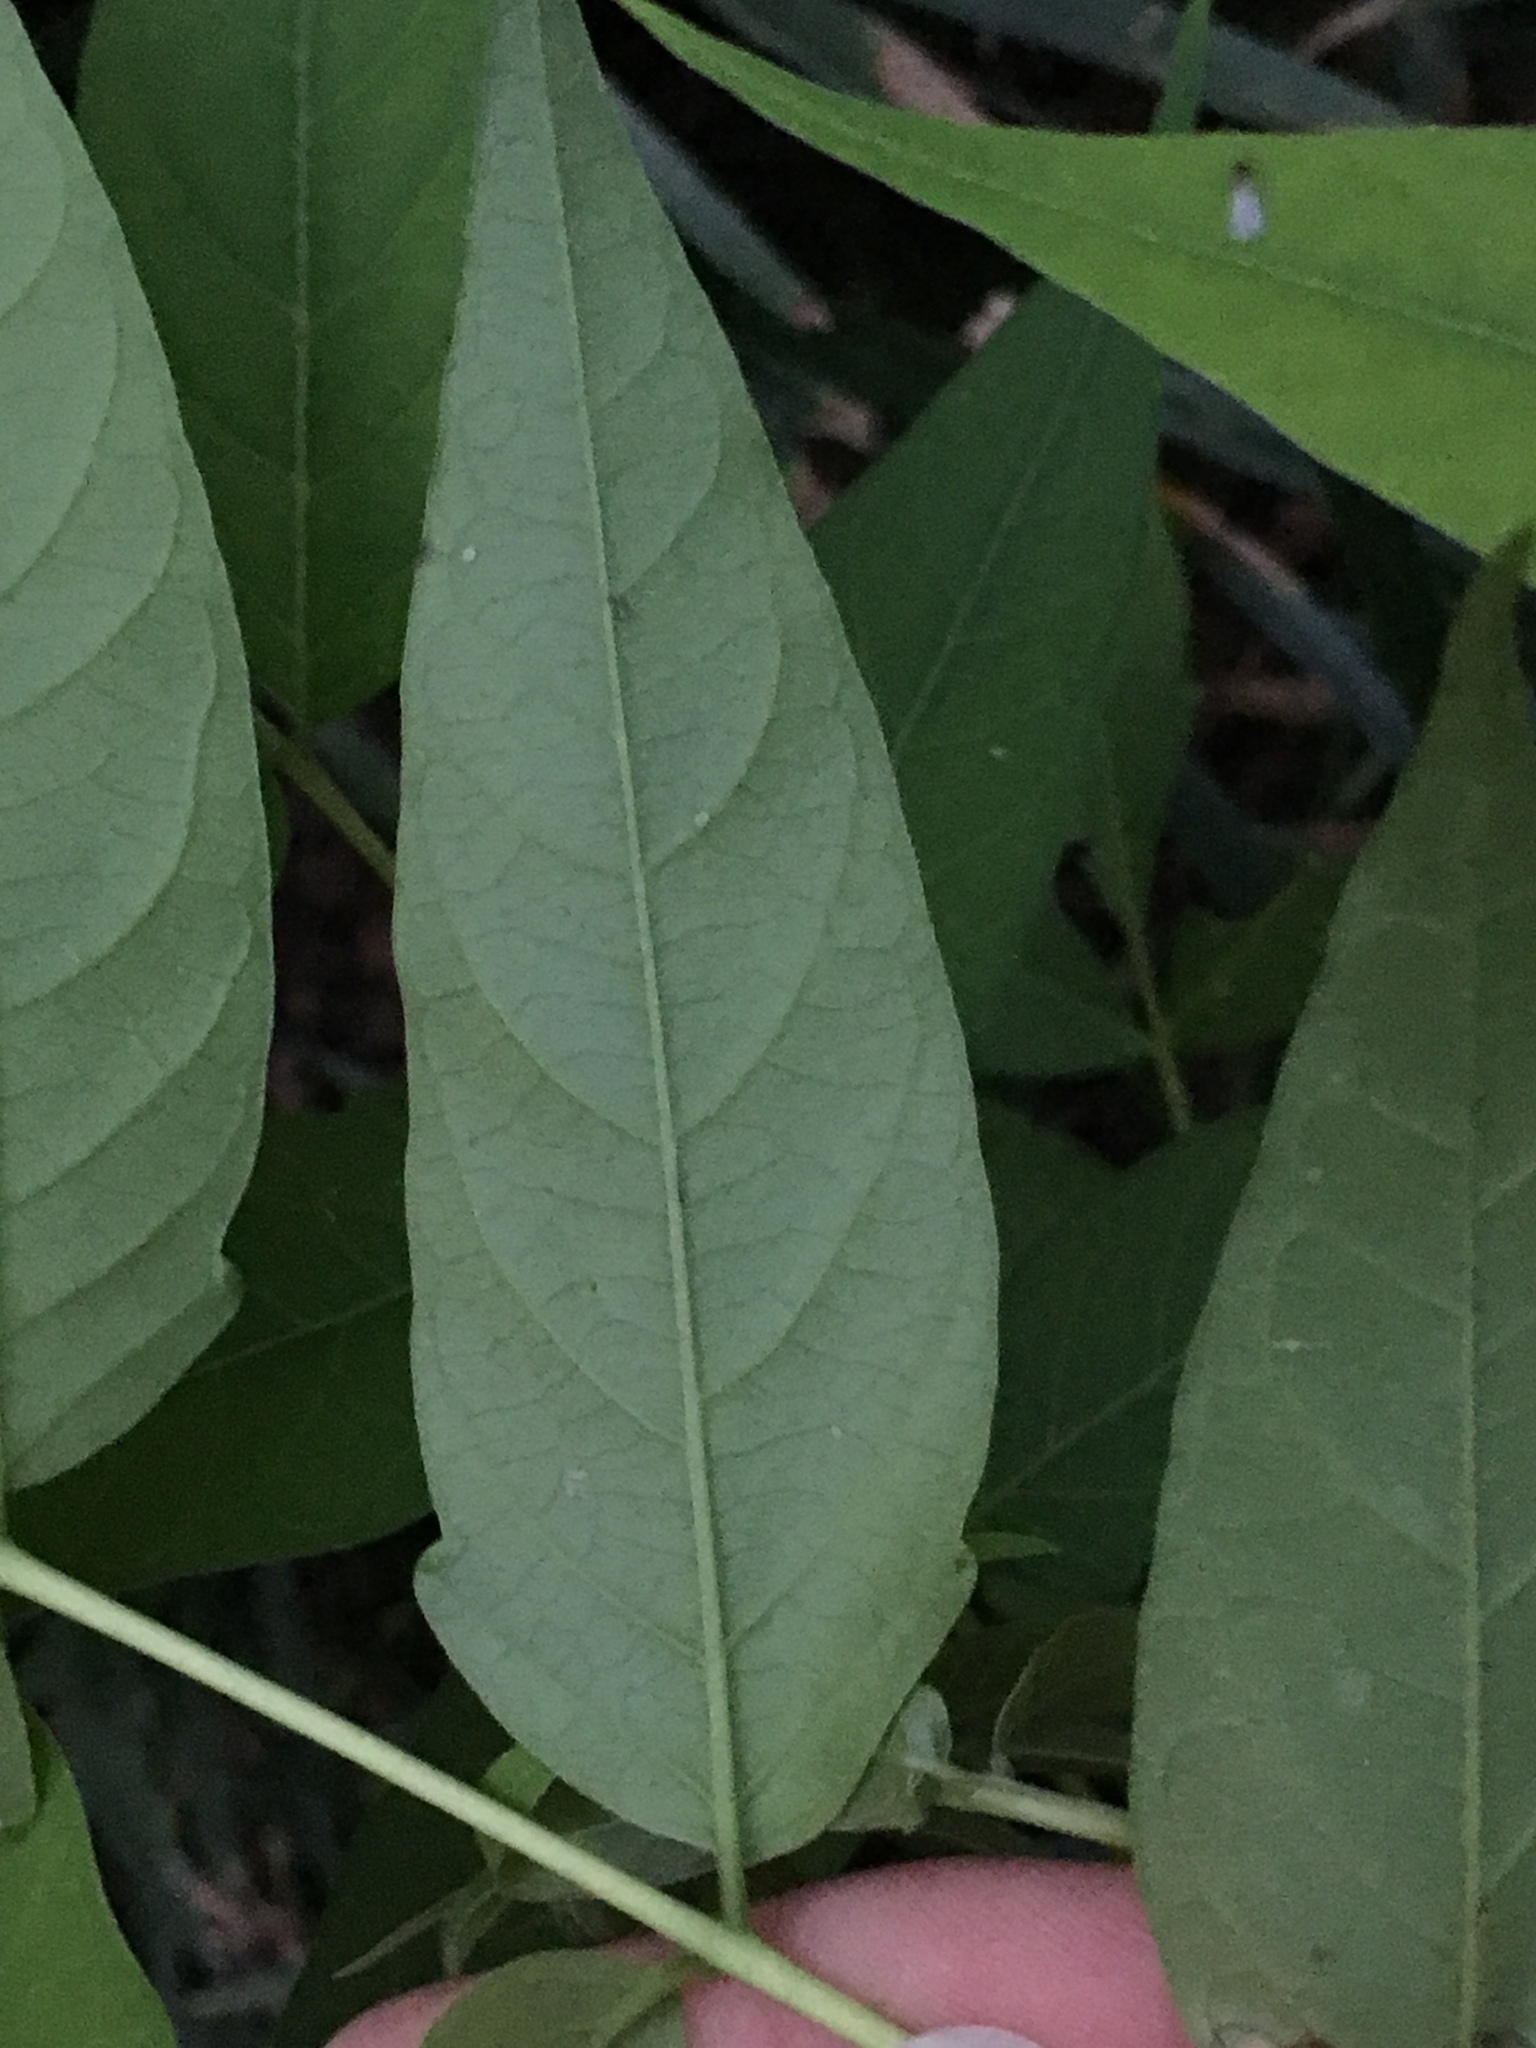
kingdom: Plantae
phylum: Tracheophyta
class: Magnoliopsida
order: Sapindales
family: Simaroubaceae
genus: Ailanthus
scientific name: Ailanthus altissima
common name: Tree-of-heaven
